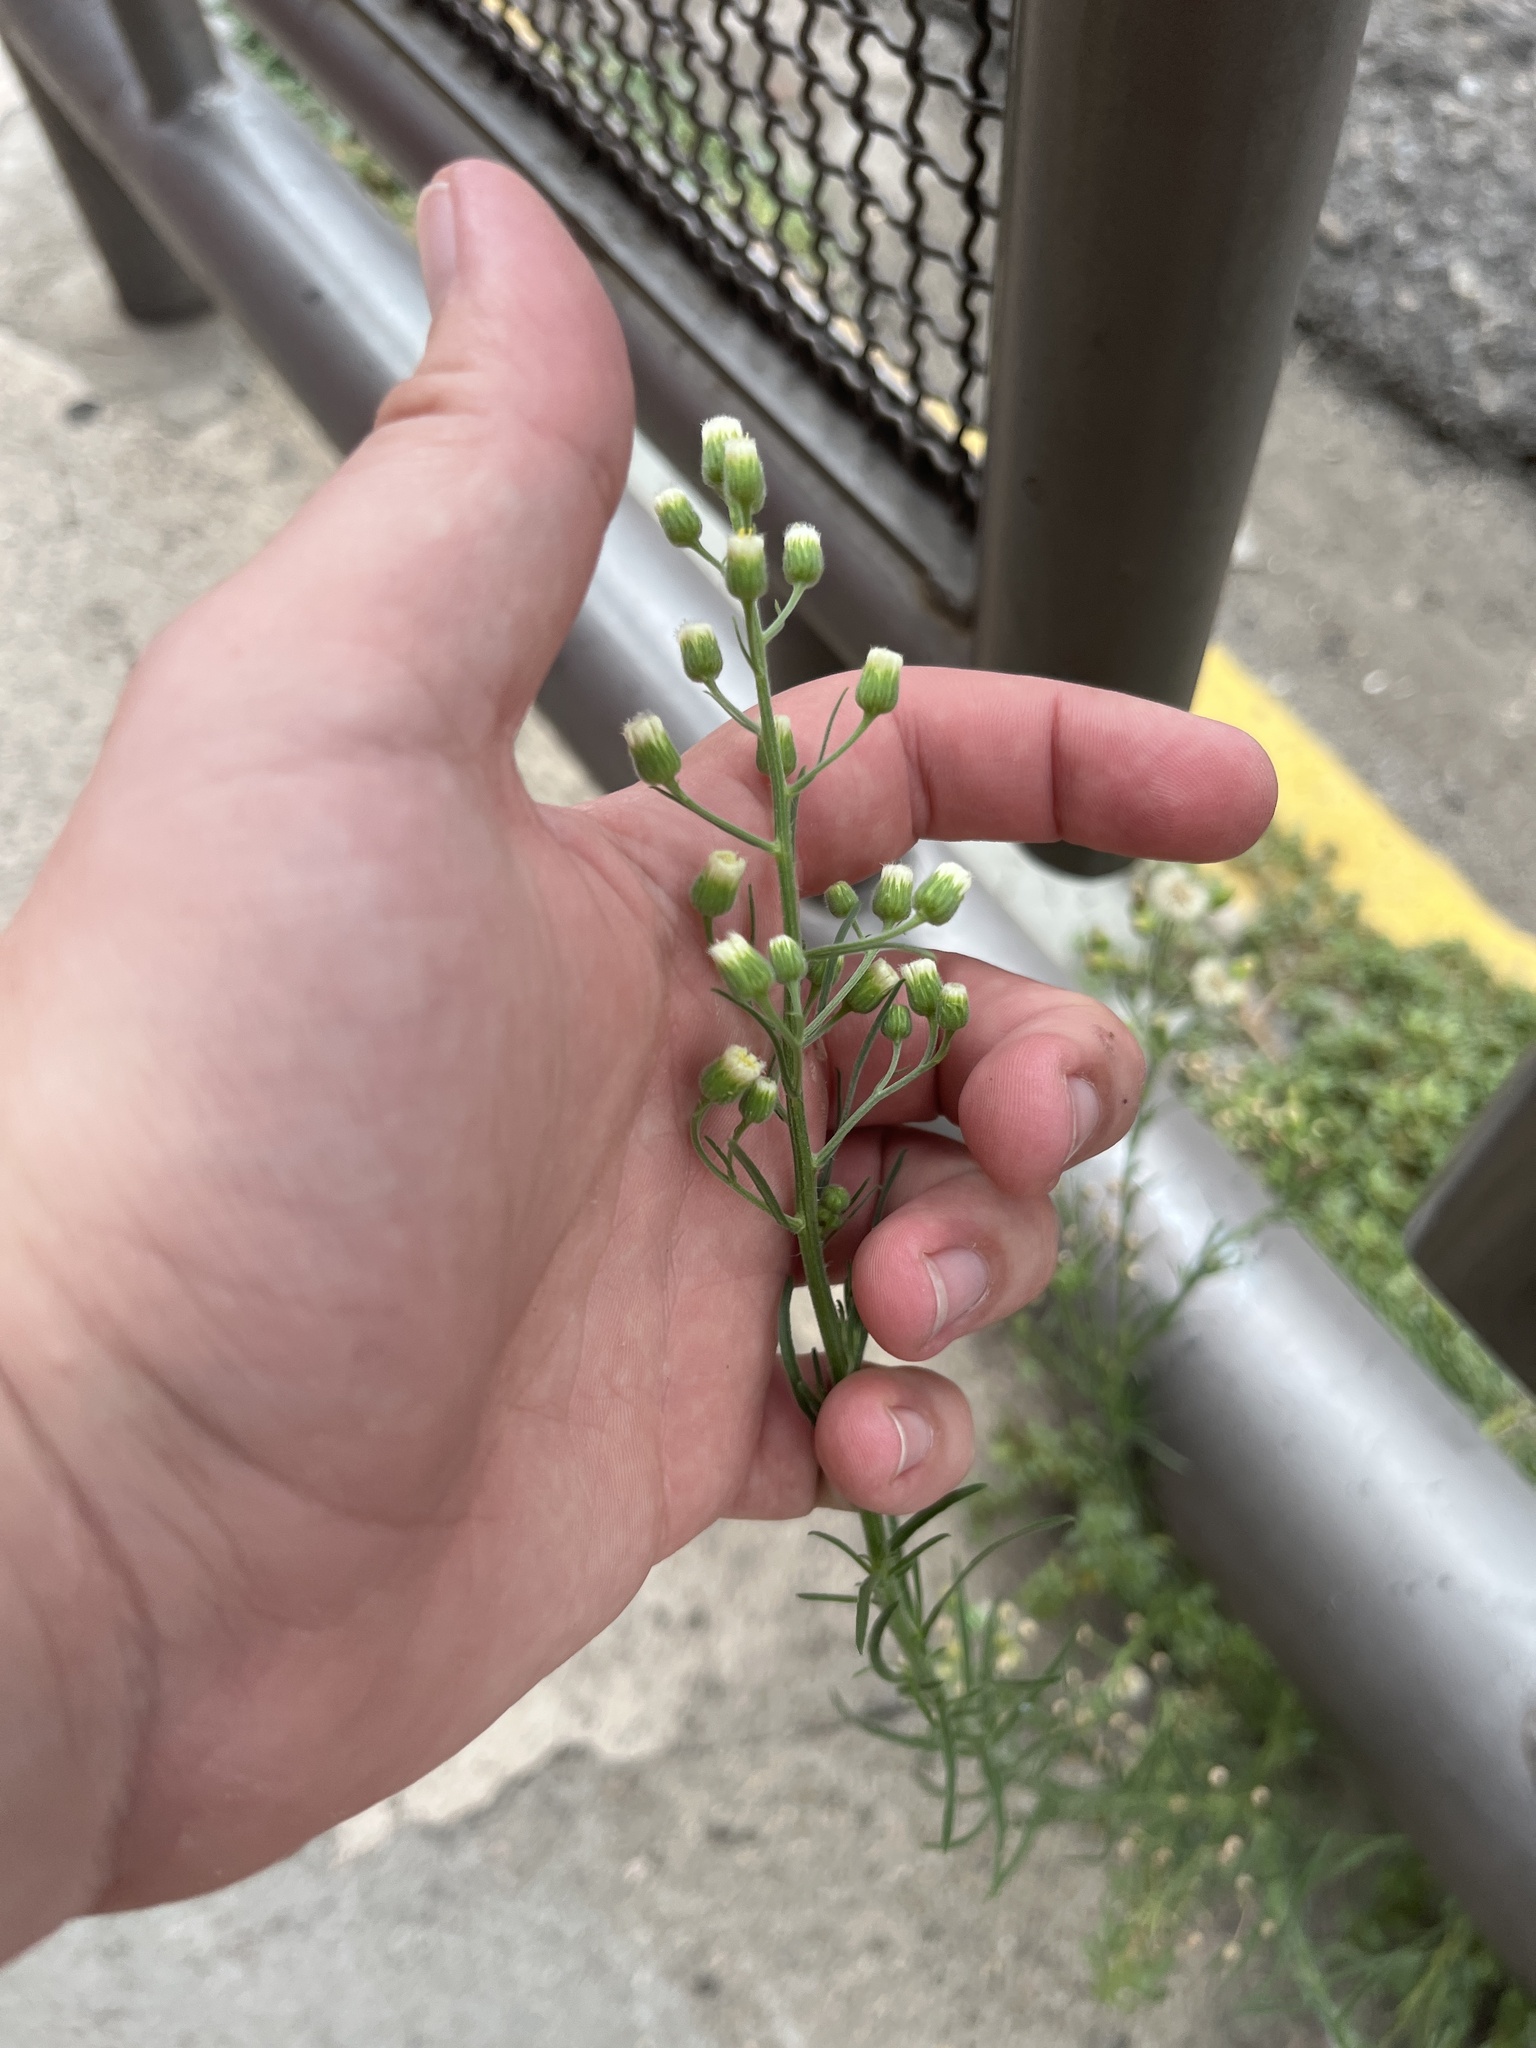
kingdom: Plantae
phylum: Tracheophyta
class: Magnoliopsida
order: Asterales
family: Asteraceae
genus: Erigeron
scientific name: Erigeron bonariensis
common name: Argentine fleabane
